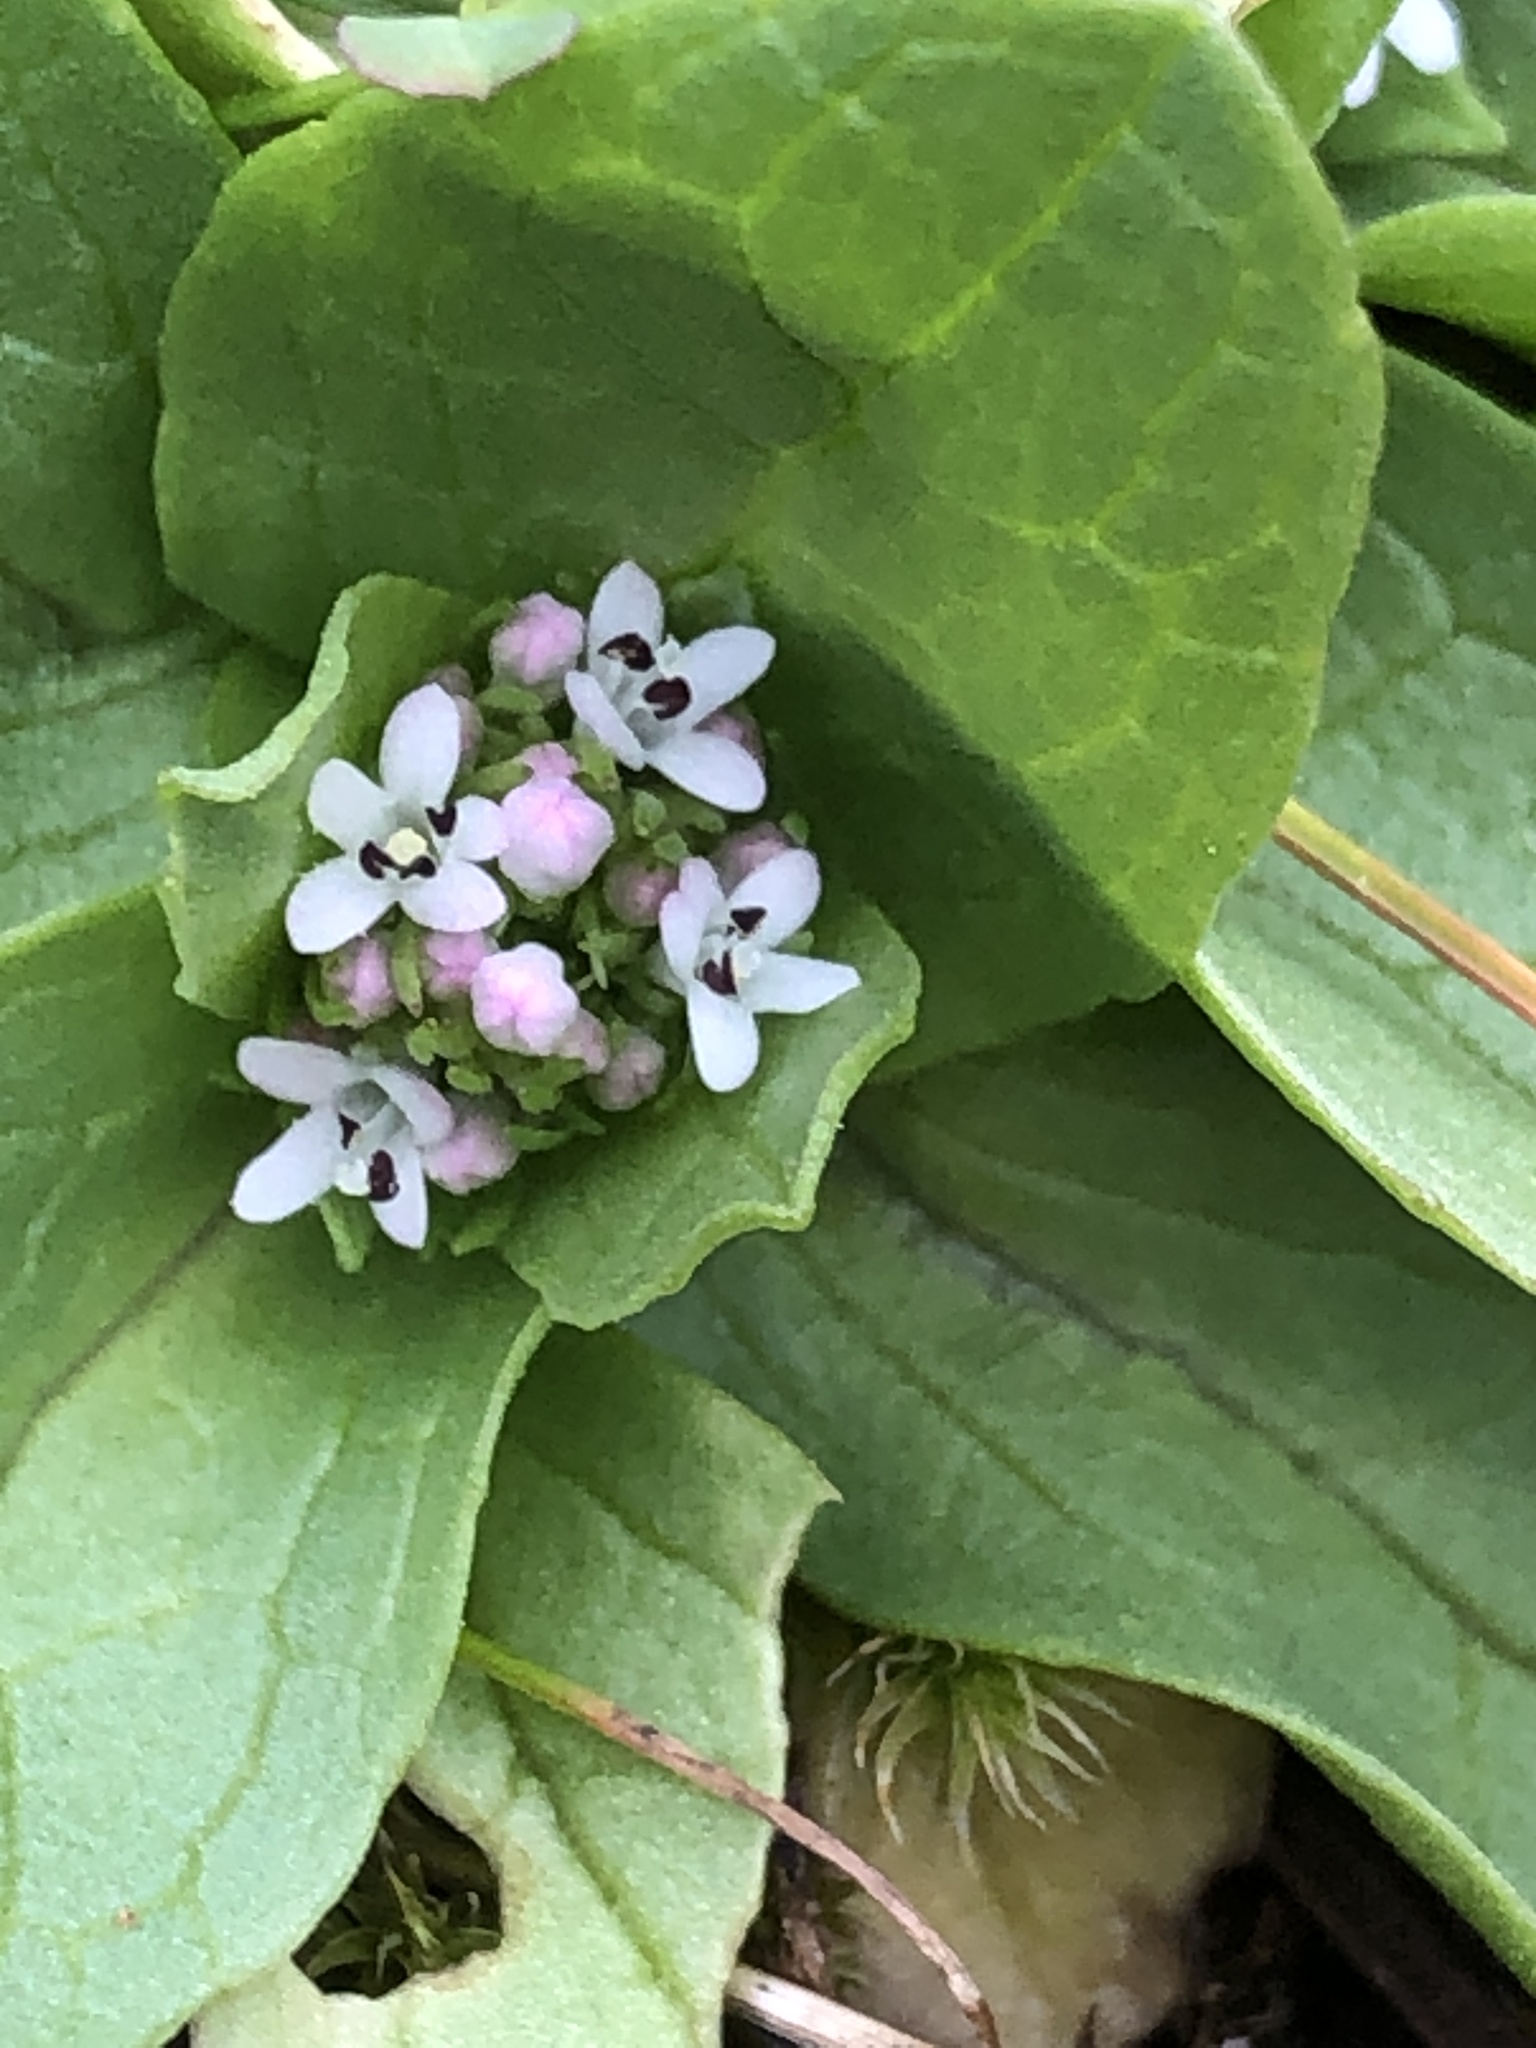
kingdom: Plantae
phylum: Tracheophyta
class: Magnoliopsida
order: Dipsacales
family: Caprifoliaceae
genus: Plectritis
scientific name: Plectritis brachystemon
